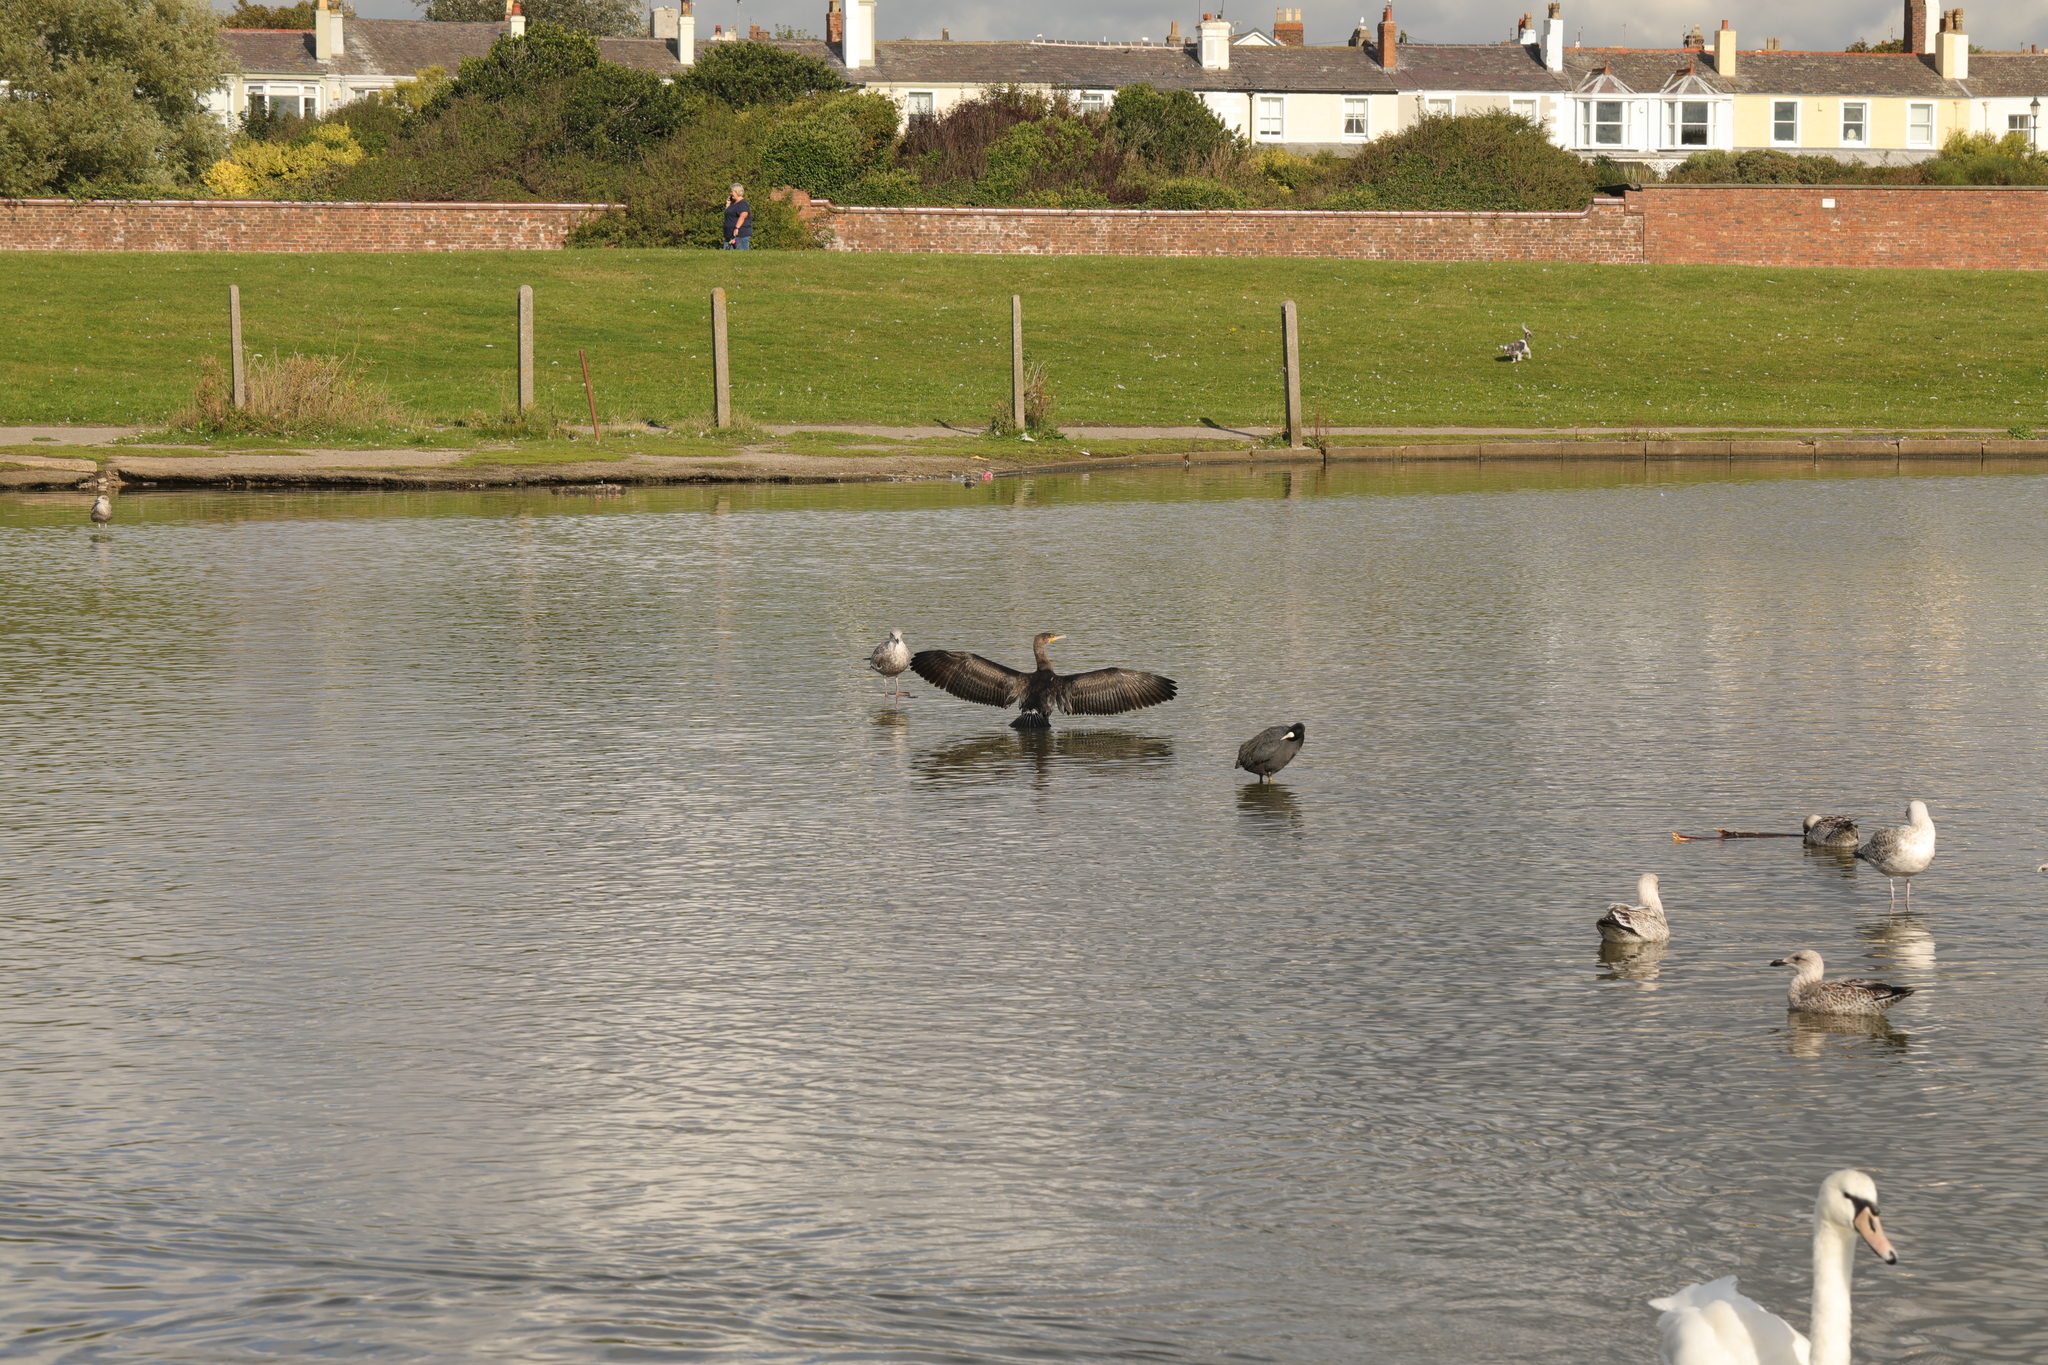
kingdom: Animalia
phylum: Chordata
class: Aves
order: Suliformes
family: Phalacrocoracidae
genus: Phalacrocorax
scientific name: Phalacrocorax carbo
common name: Great cormorant
